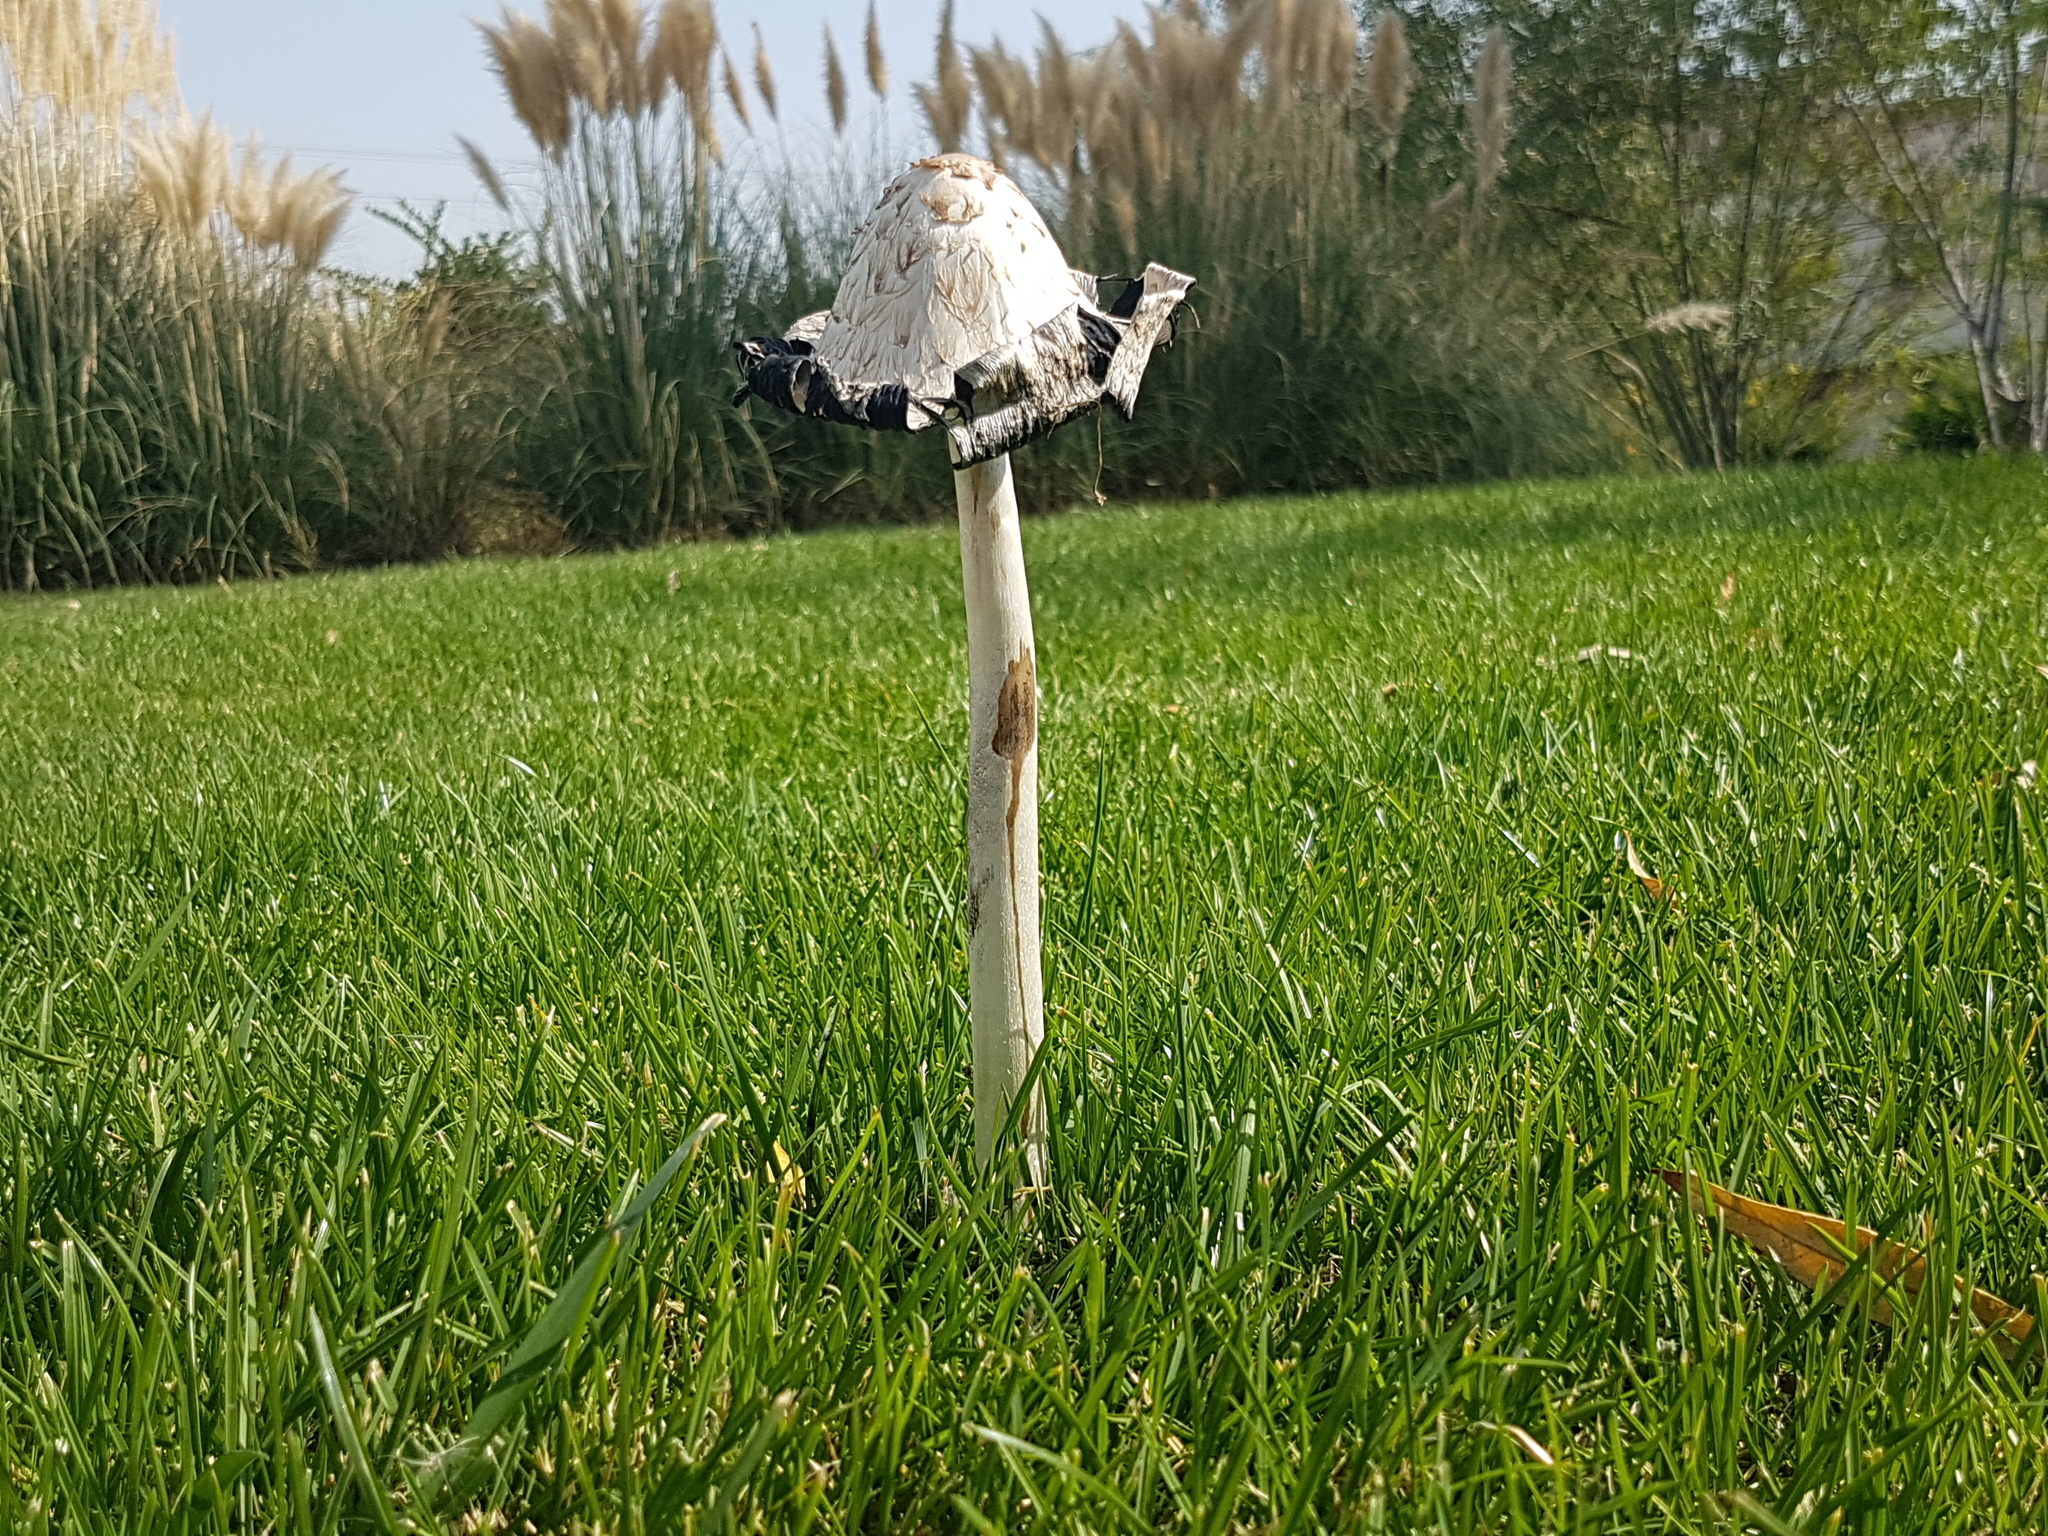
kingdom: Fungi
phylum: Basidiomycota
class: Agaricomycetes
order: Agaricales
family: Agaricaceae
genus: Coprinus
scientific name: Coprinus comatus
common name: Lawyer's wig
